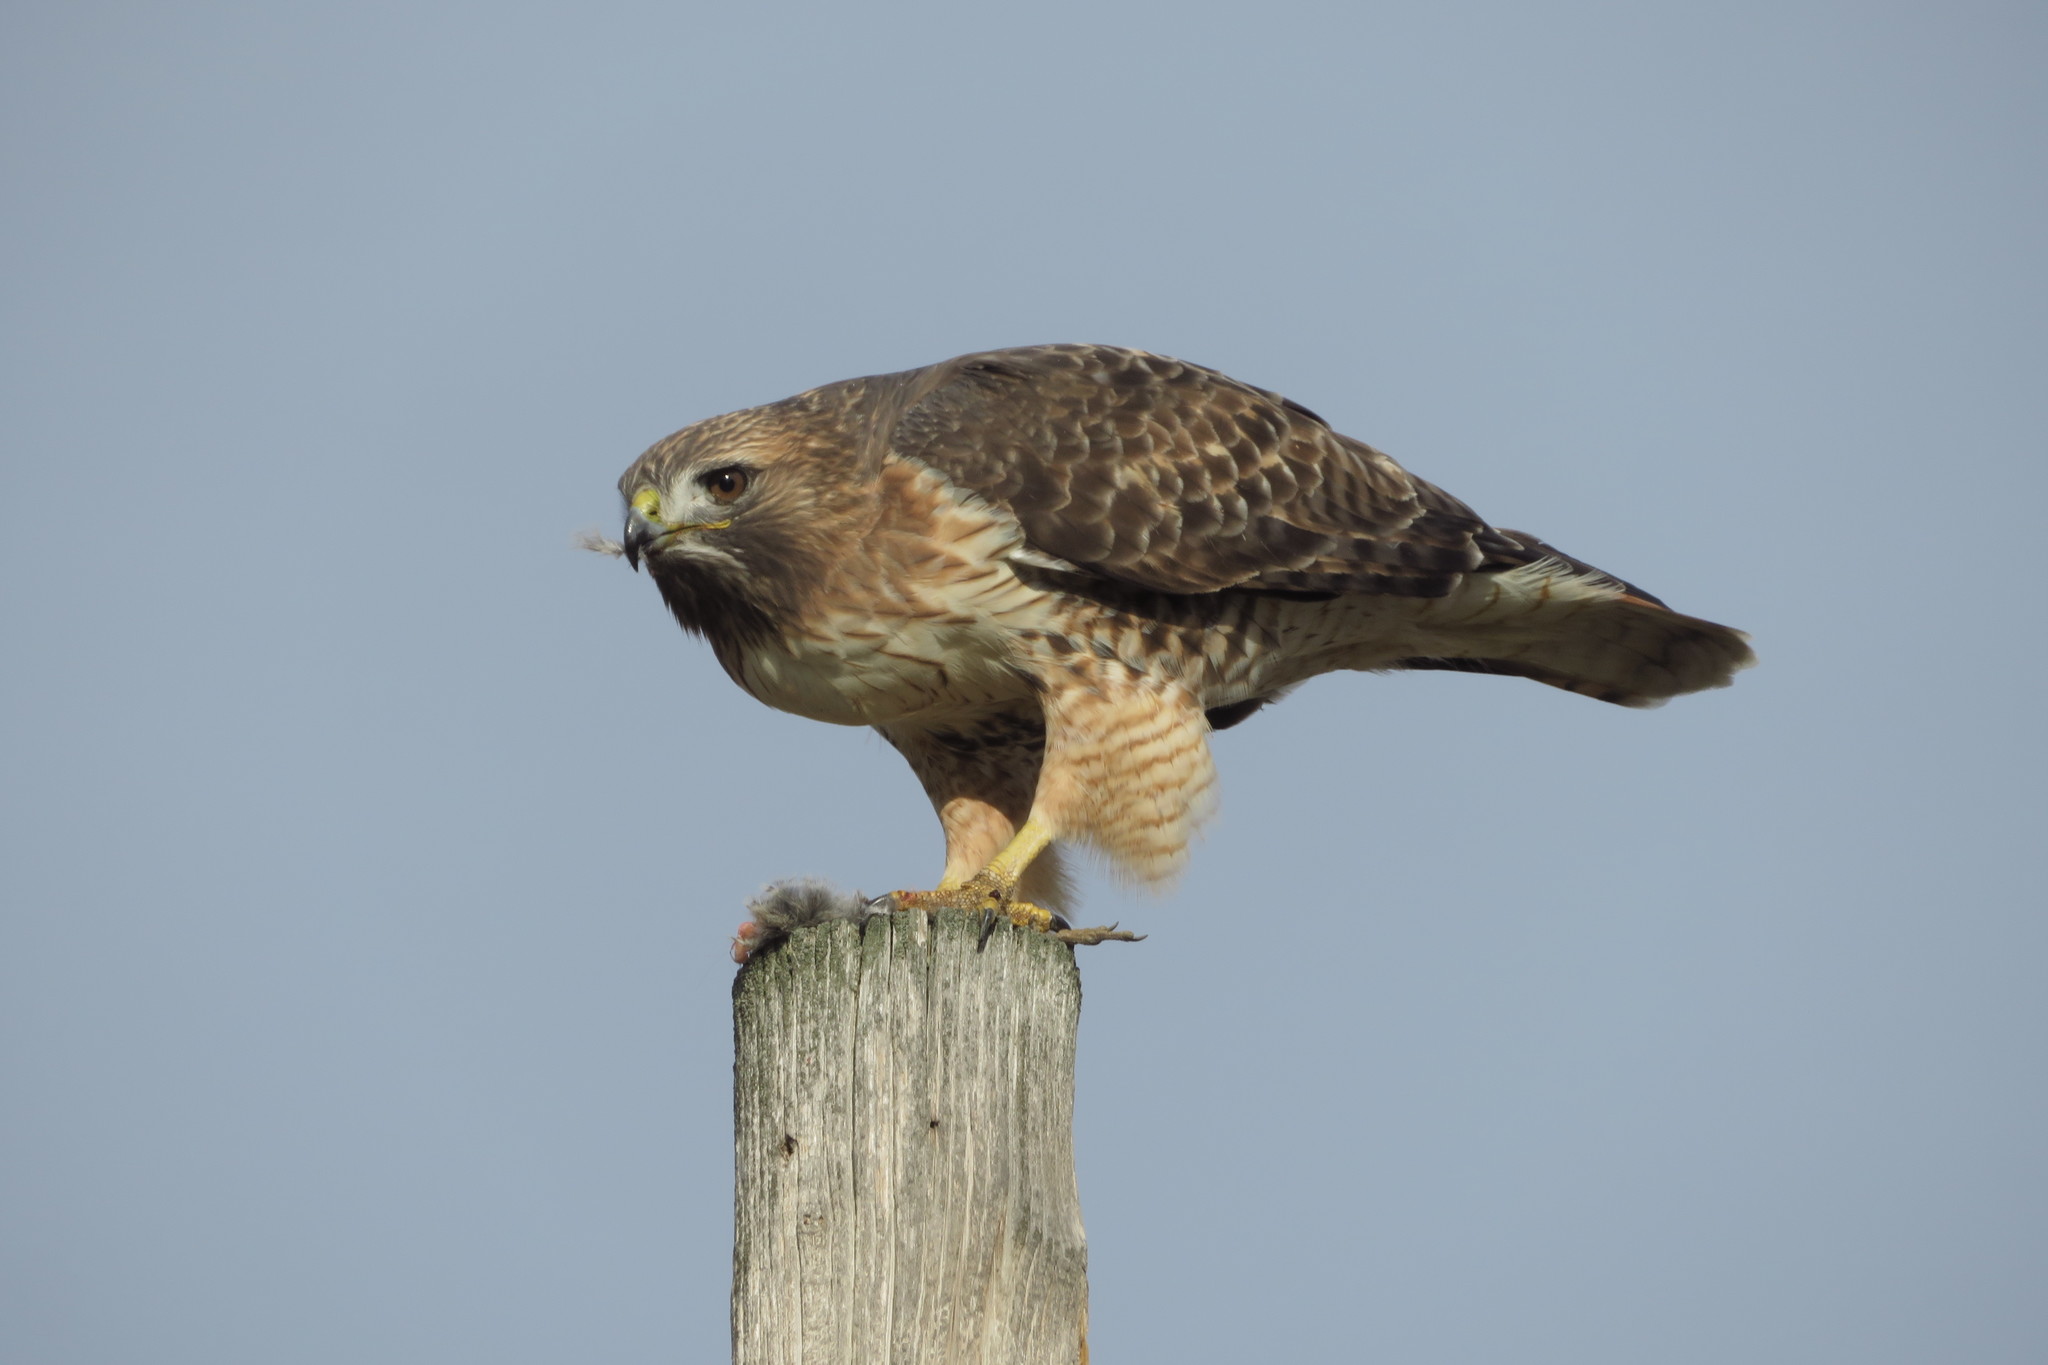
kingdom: Animalia
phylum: Chordata
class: Aves
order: Accipitriformes
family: Accipitridae
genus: Buteo
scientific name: Buteo jamaicensis
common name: Red-tailed hawk
